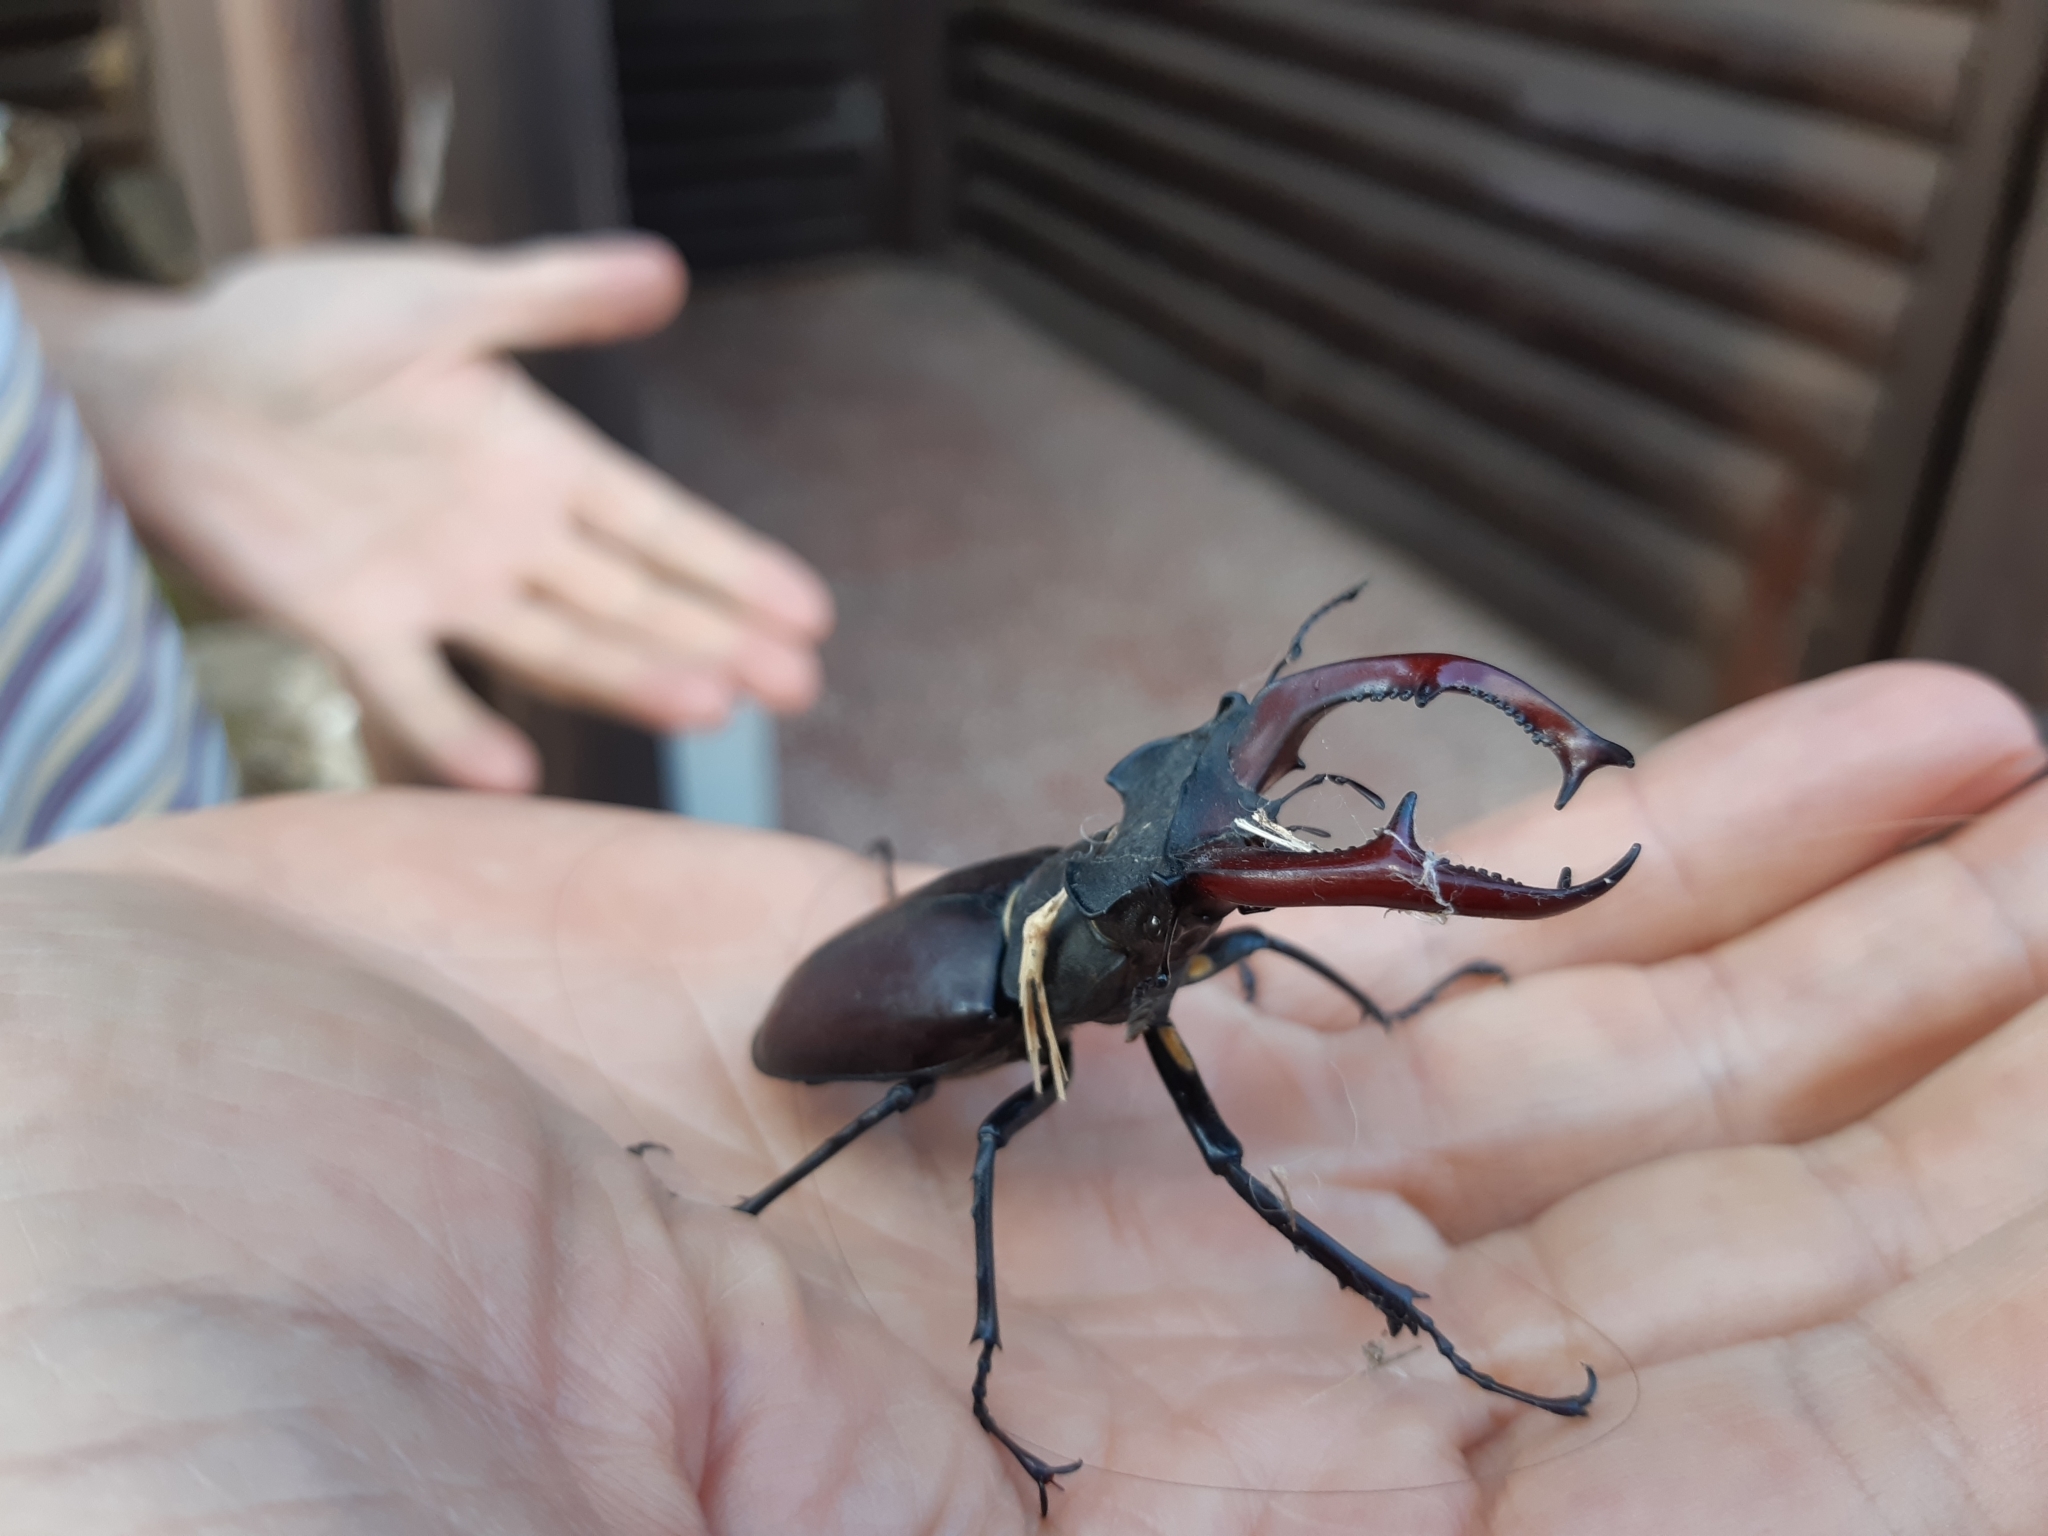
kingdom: Animalia
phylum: Arthropoda
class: Insecta
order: Coleoptera
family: Lucanidae
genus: Lucanus
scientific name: Lucanus cervus
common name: Stag beetle
